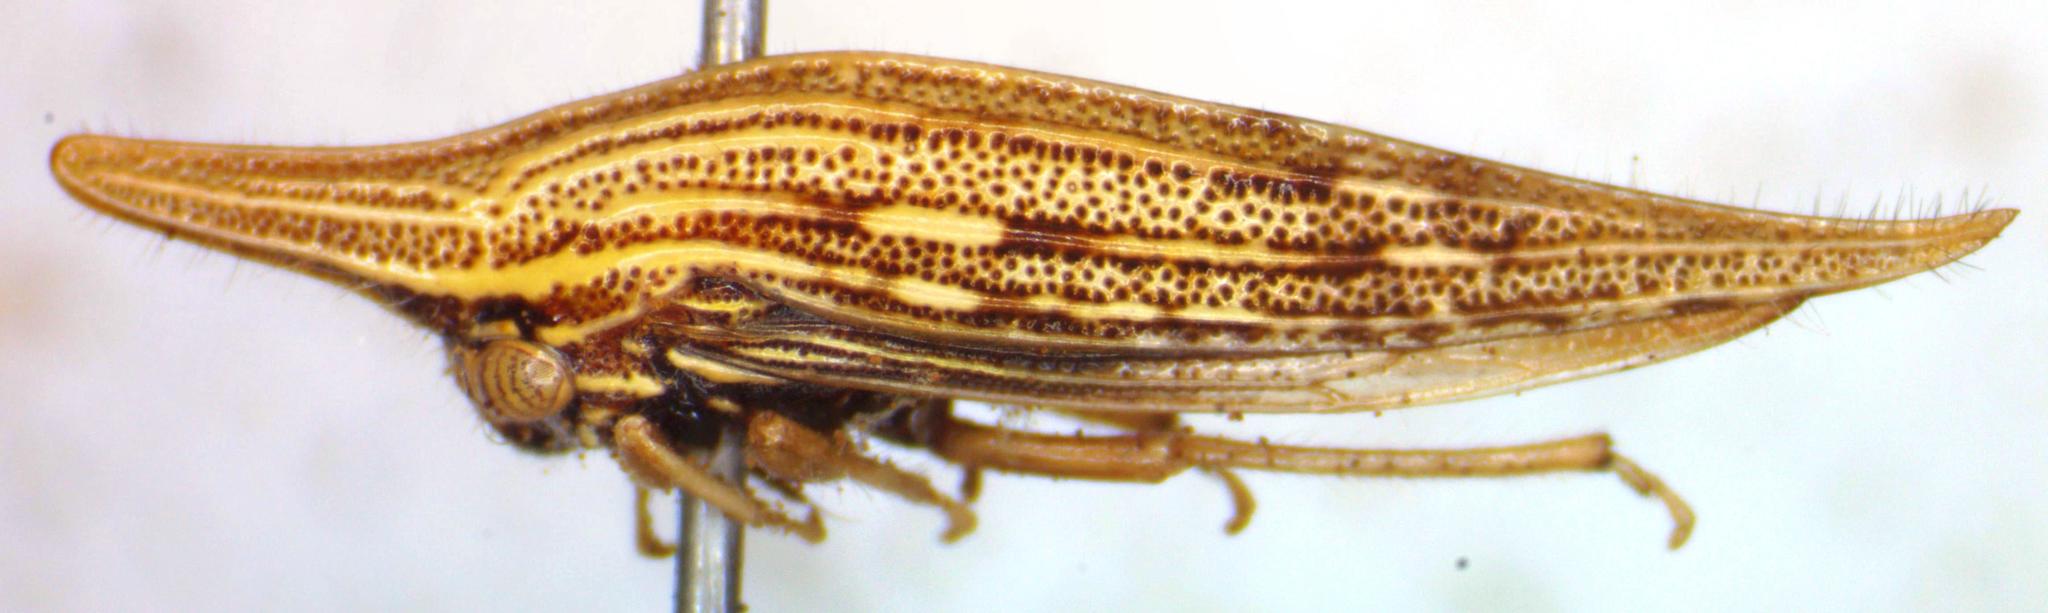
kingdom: Animalia
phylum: Arthropoda
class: Insecta
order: Hemiptera
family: Membracidae
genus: Polyglypta
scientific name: Polyglypta costata
